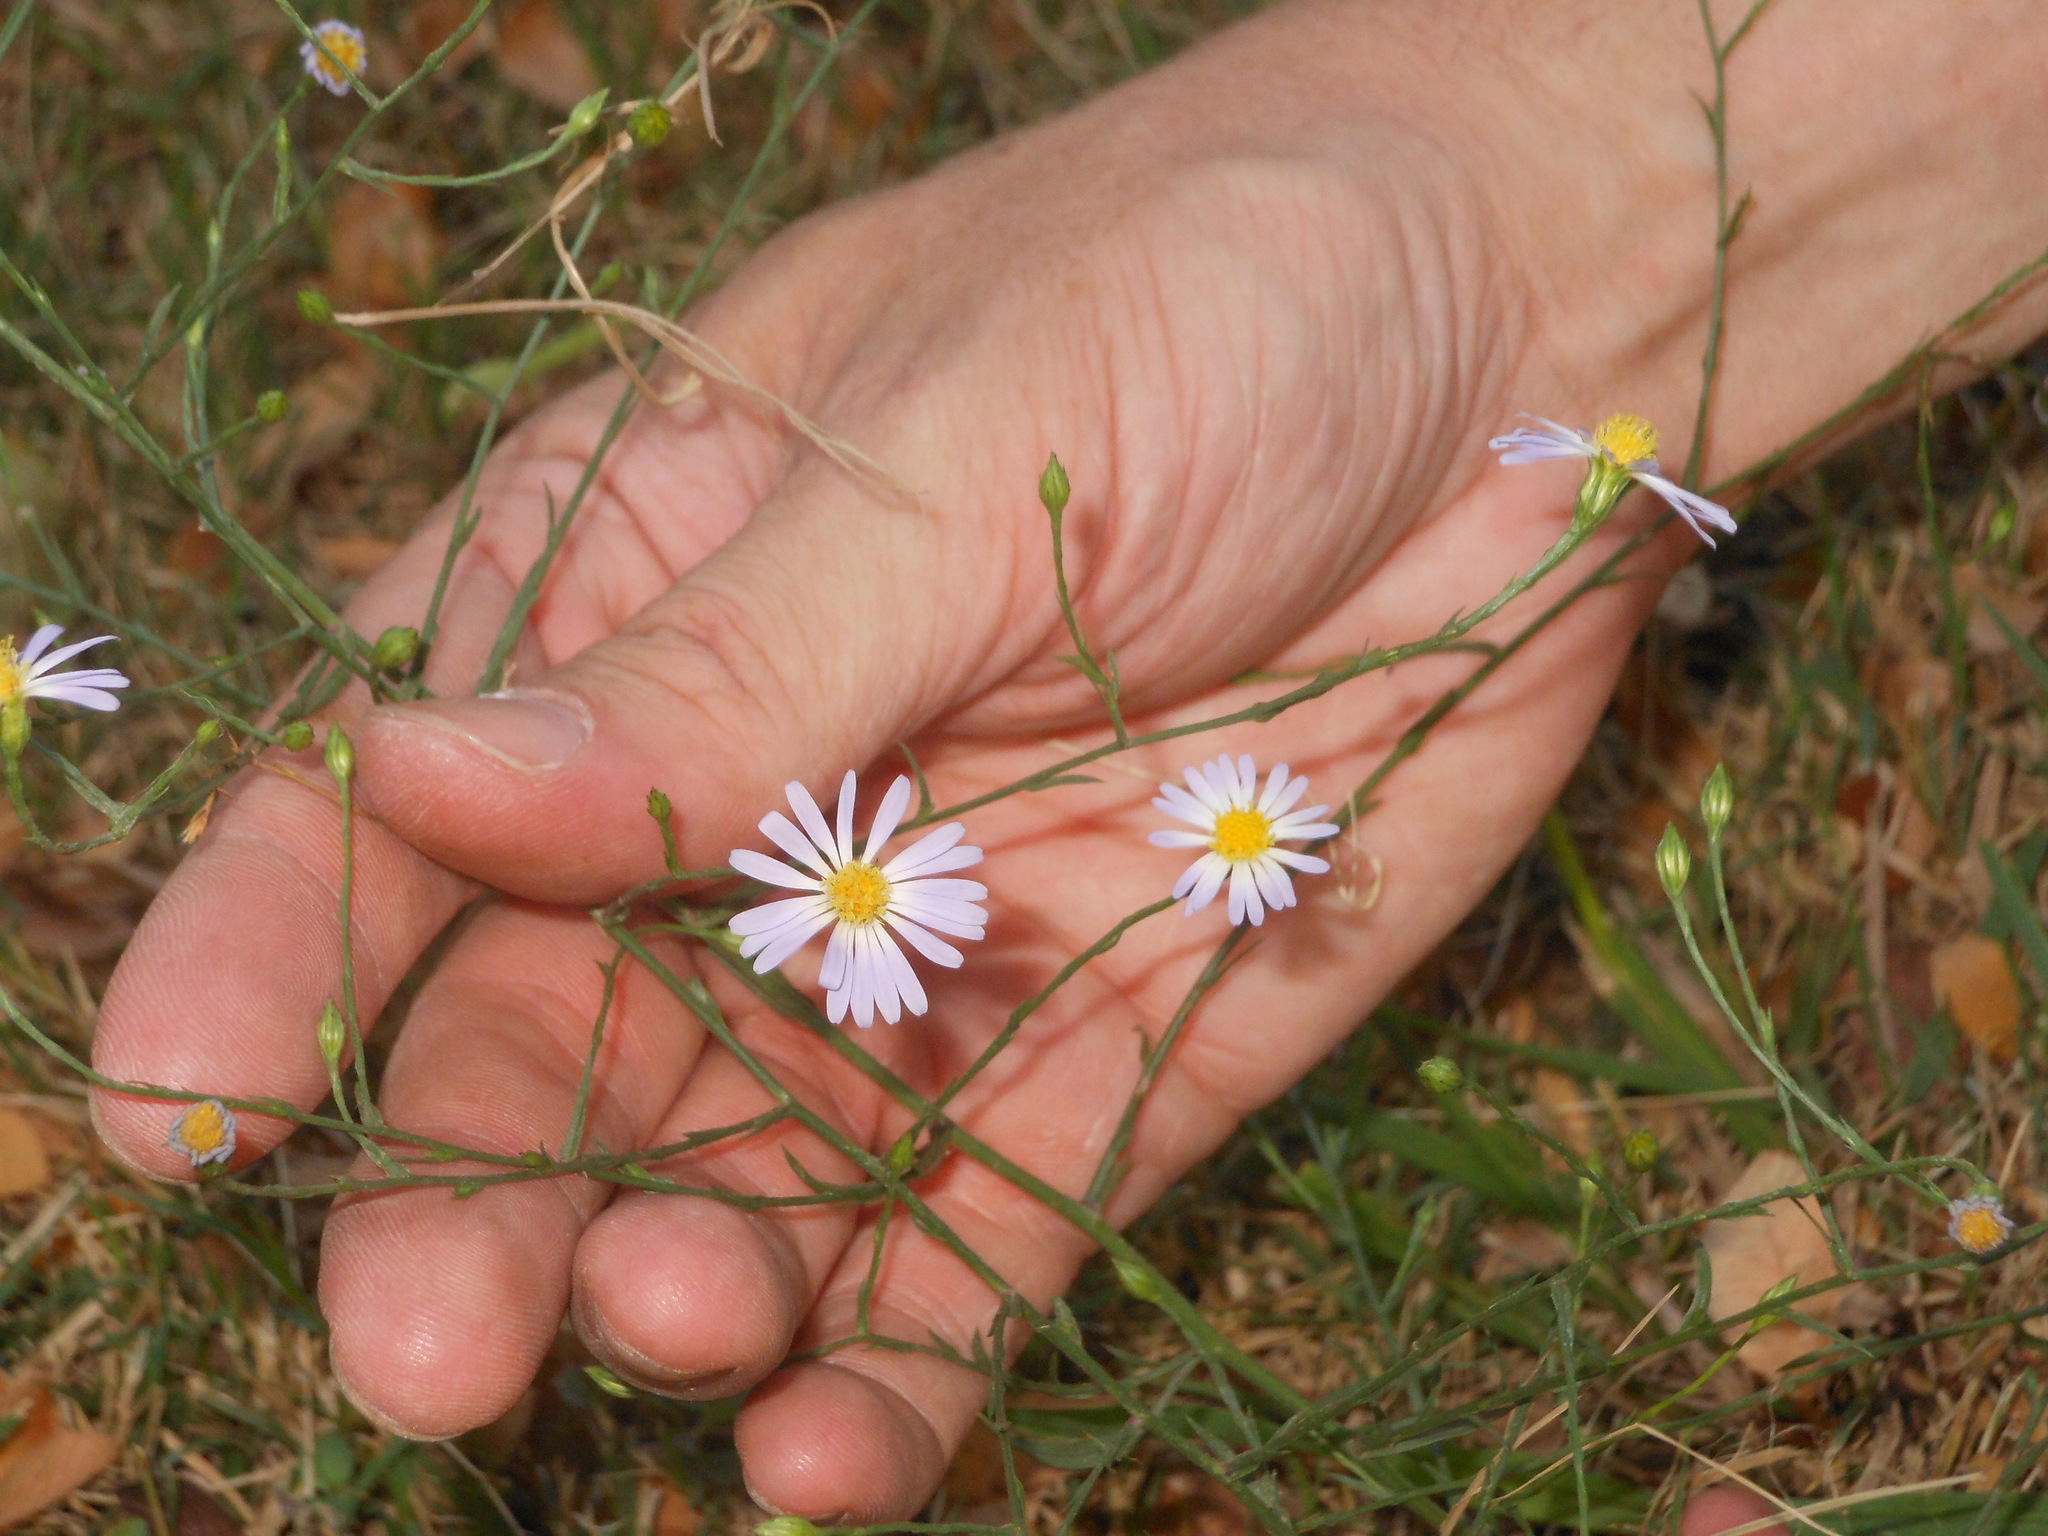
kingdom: Plantae
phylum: Tracheophyta
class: Magnoliopsida
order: Asterales
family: Asteraceae
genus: Symphyotrichum
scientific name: Symphyotrichum divaricatum
